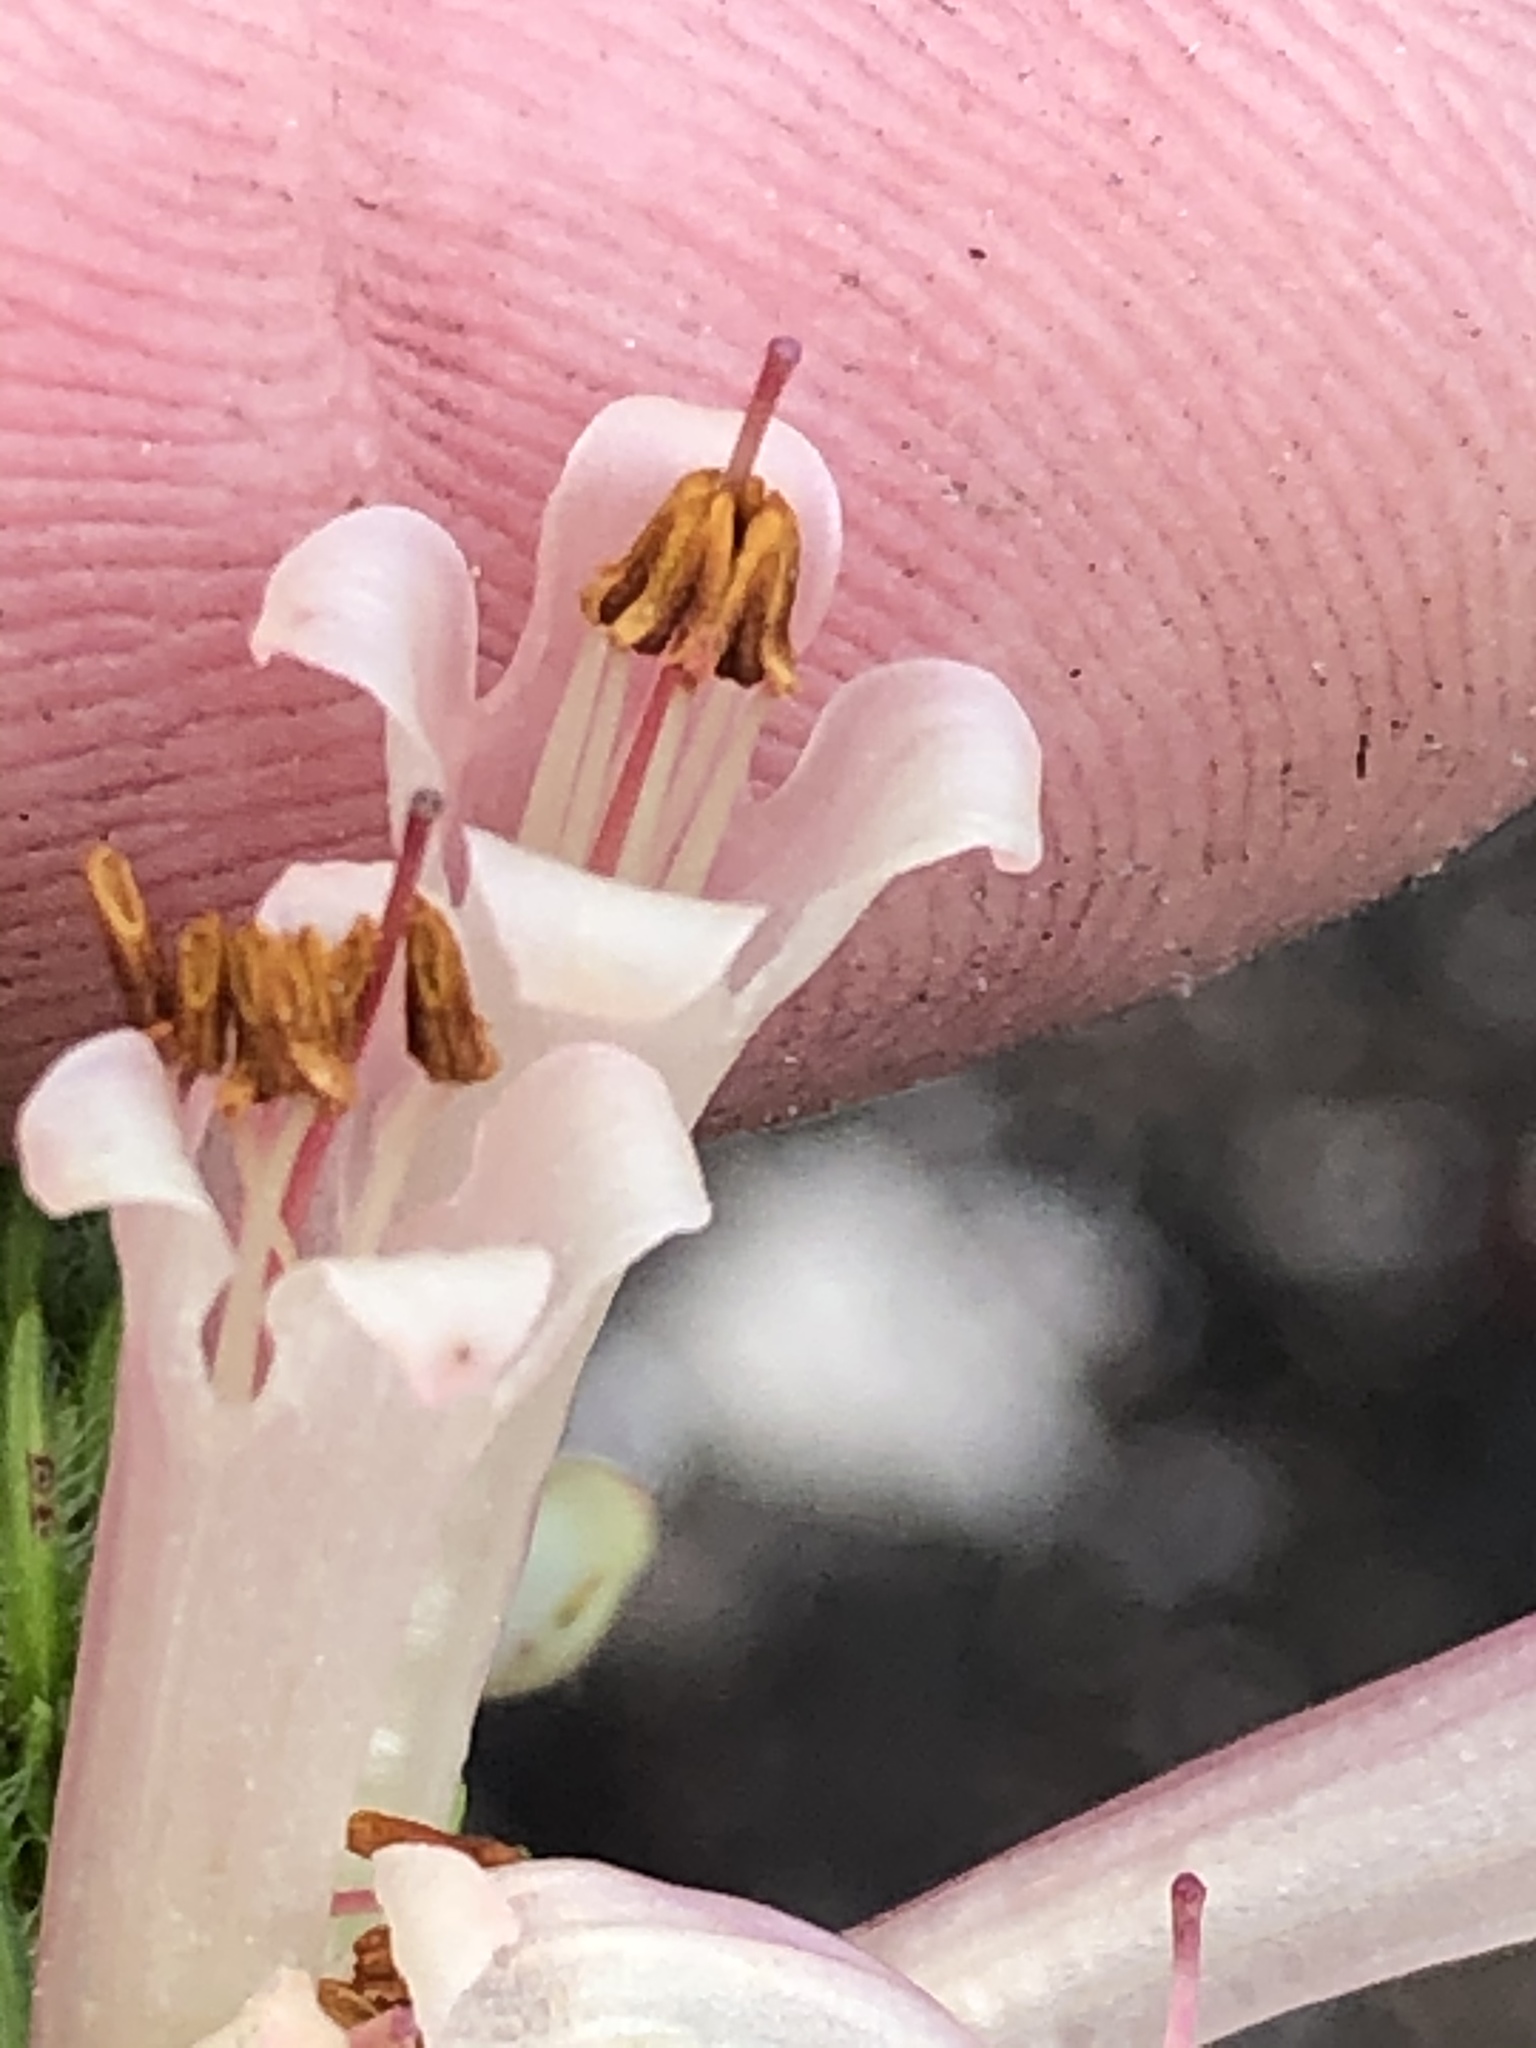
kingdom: Plantae
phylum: Tracheophyta
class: Magnoliopsida
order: Ericales
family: Ericaceae
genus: Erica
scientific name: Erica curviflora
